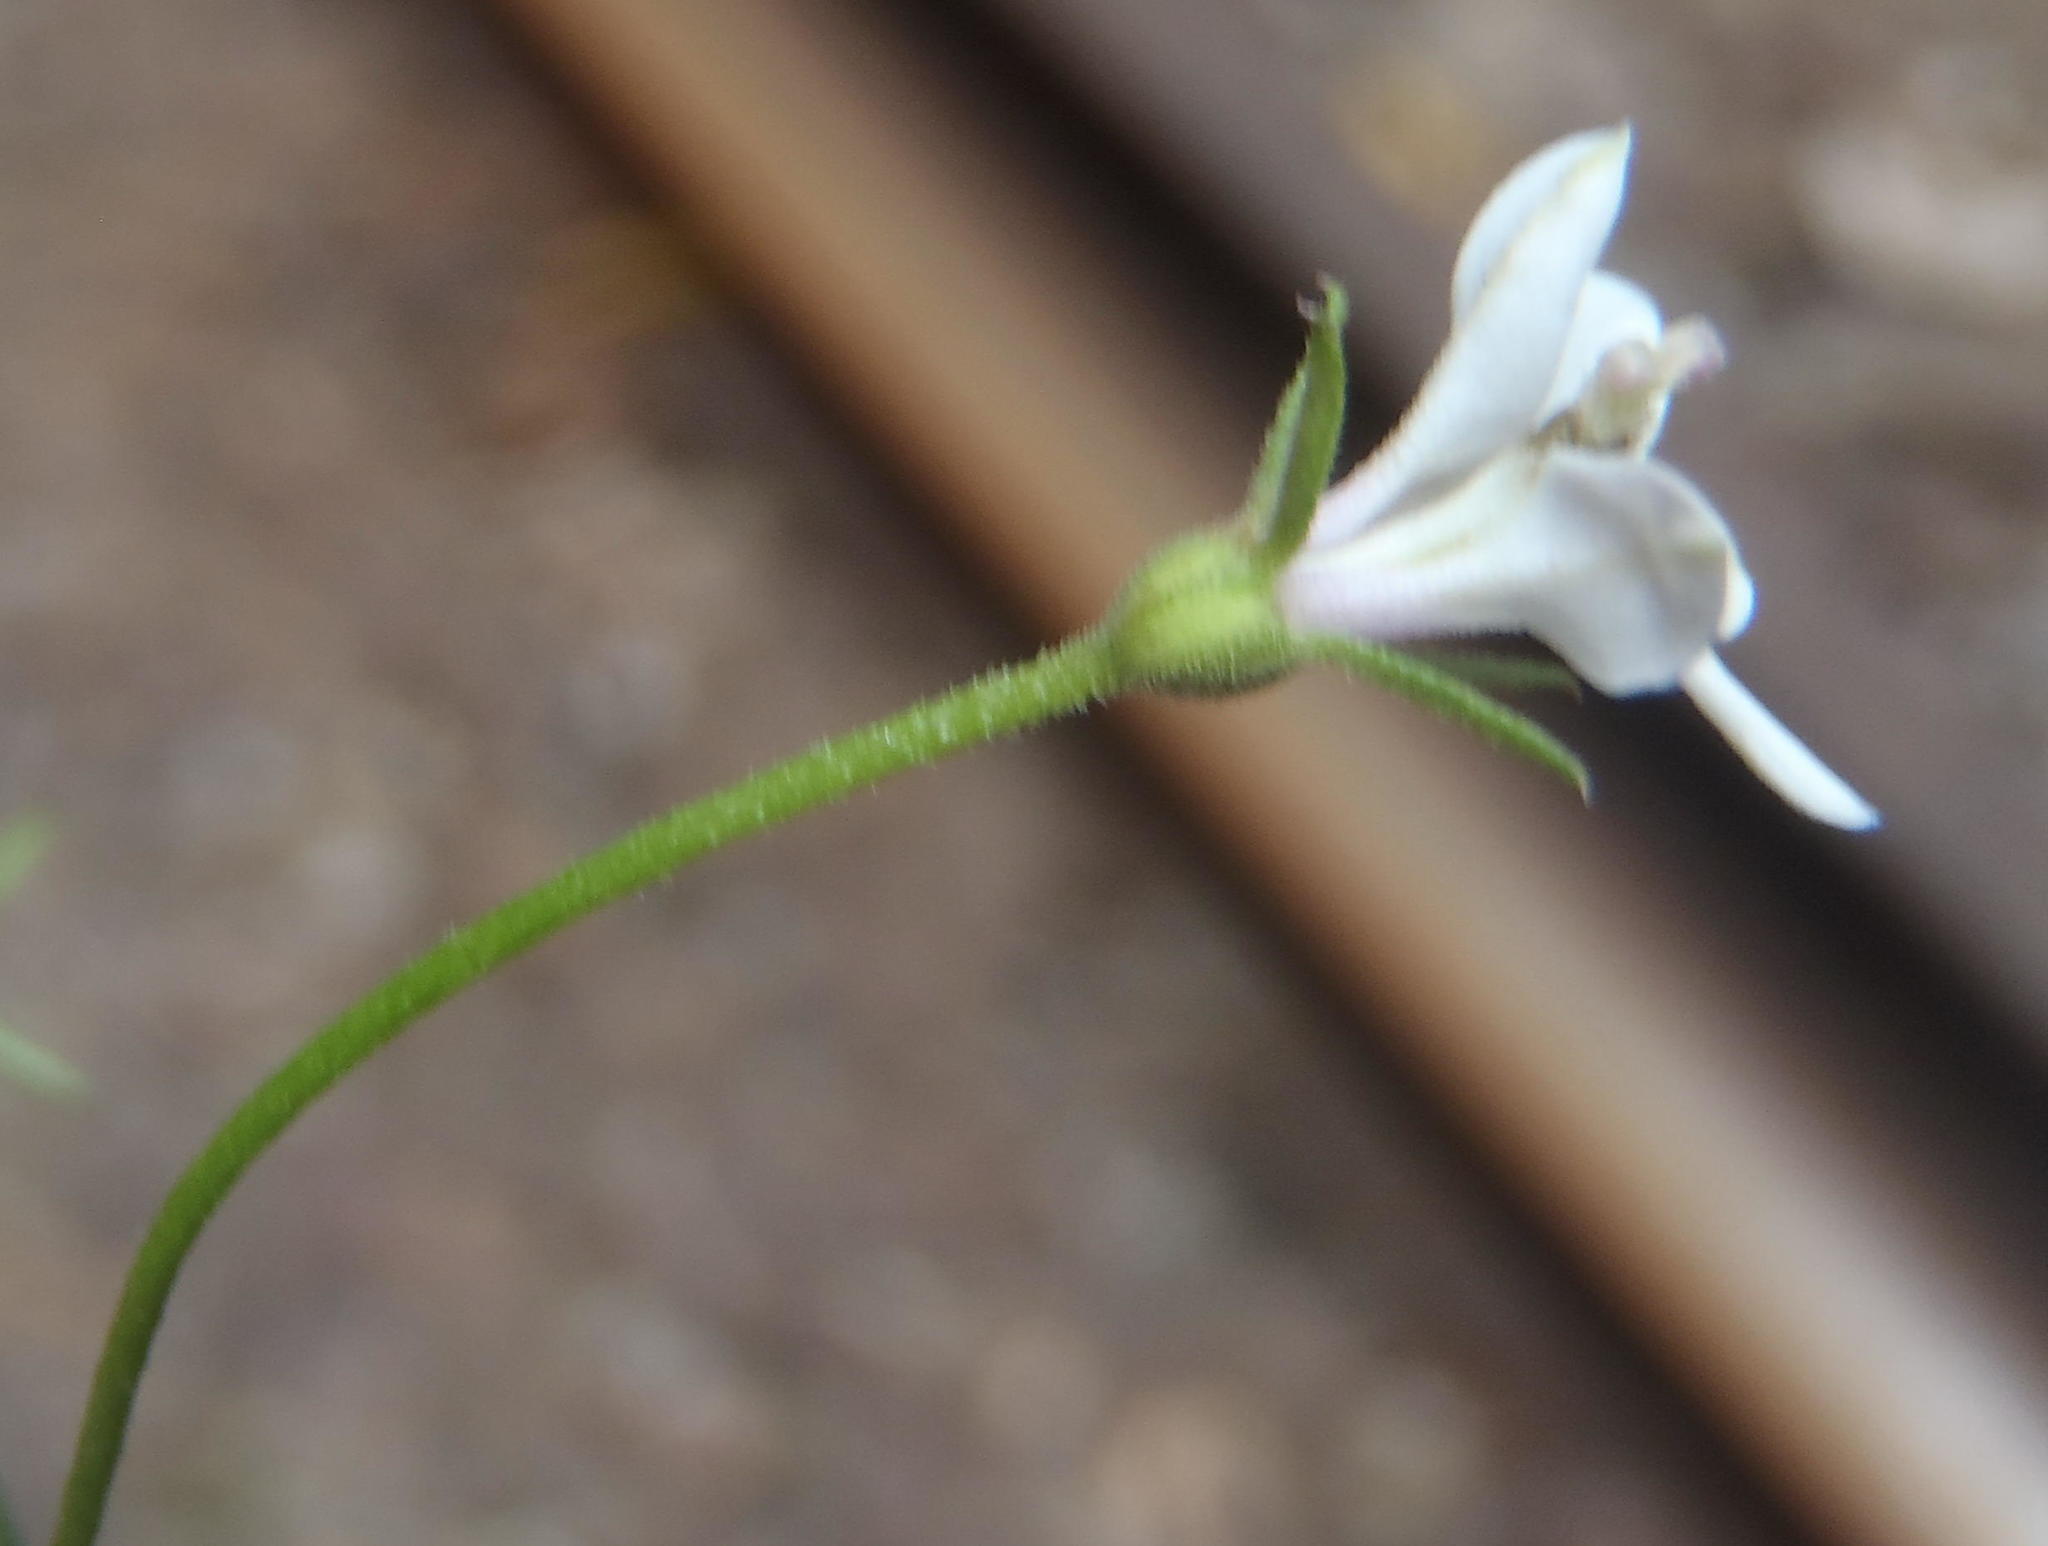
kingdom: Plantae
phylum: Tracheophyta
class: Magnoliopsida
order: Asterales
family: Campanulaceae
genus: Monopsis
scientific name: Monopsis alba
